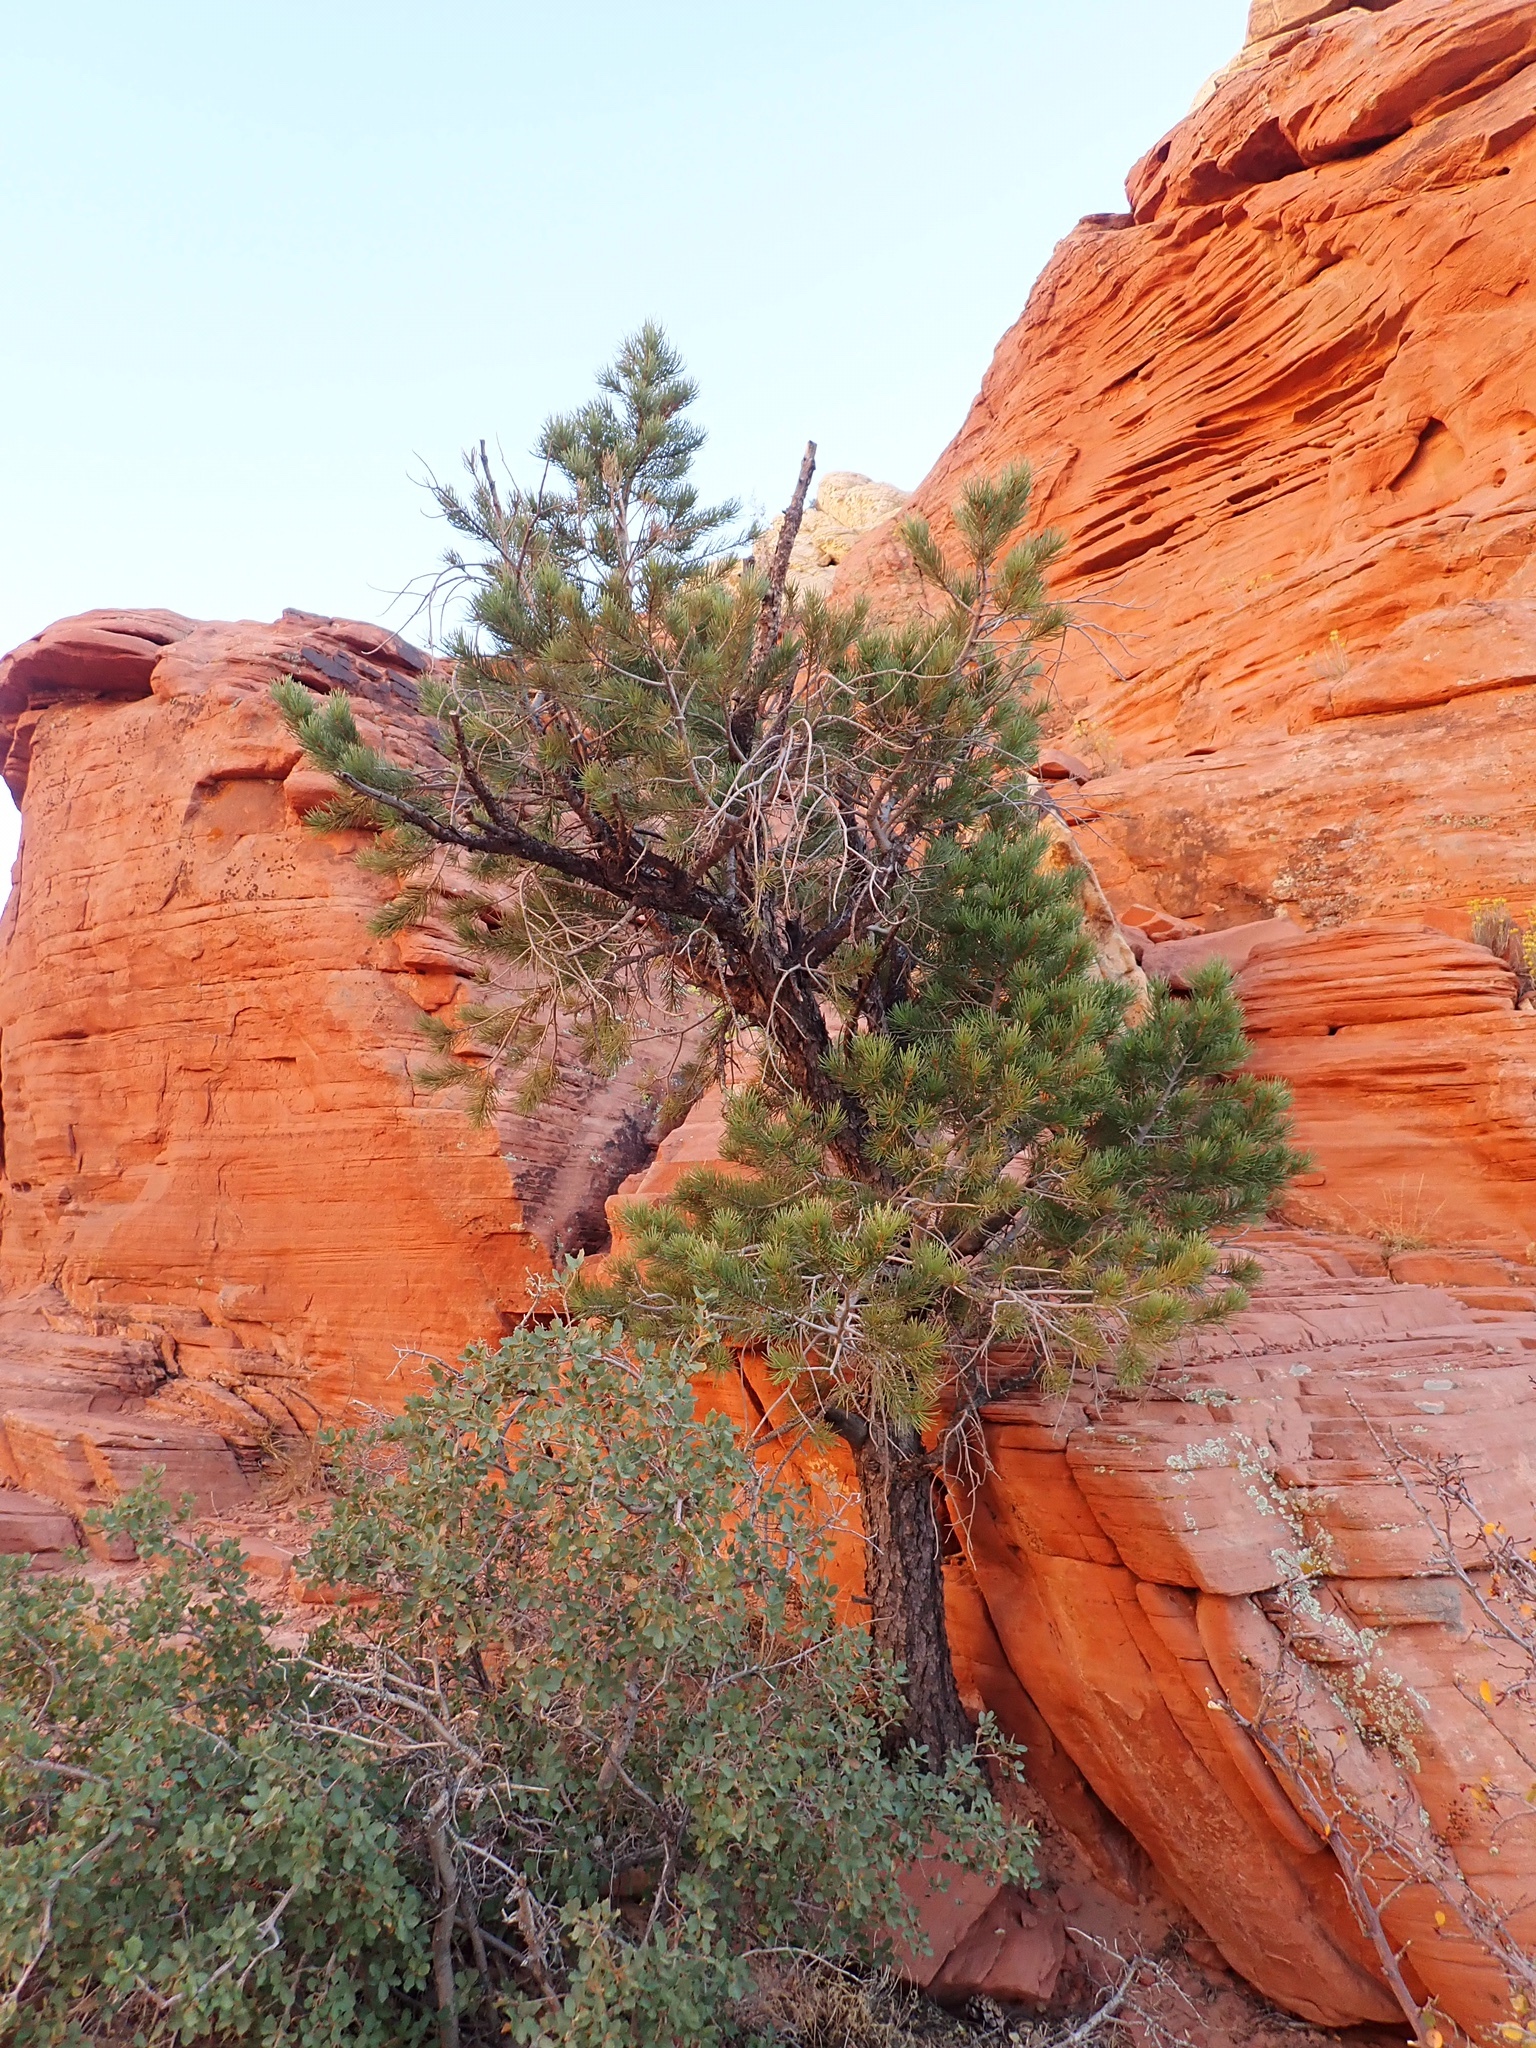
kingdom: Plantae
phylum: Tracheophyta
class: Pinopsida
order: Pinales
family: Pinaceae
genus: Pinus
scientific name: Pinus monophylla
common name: One-leaved nut pine
